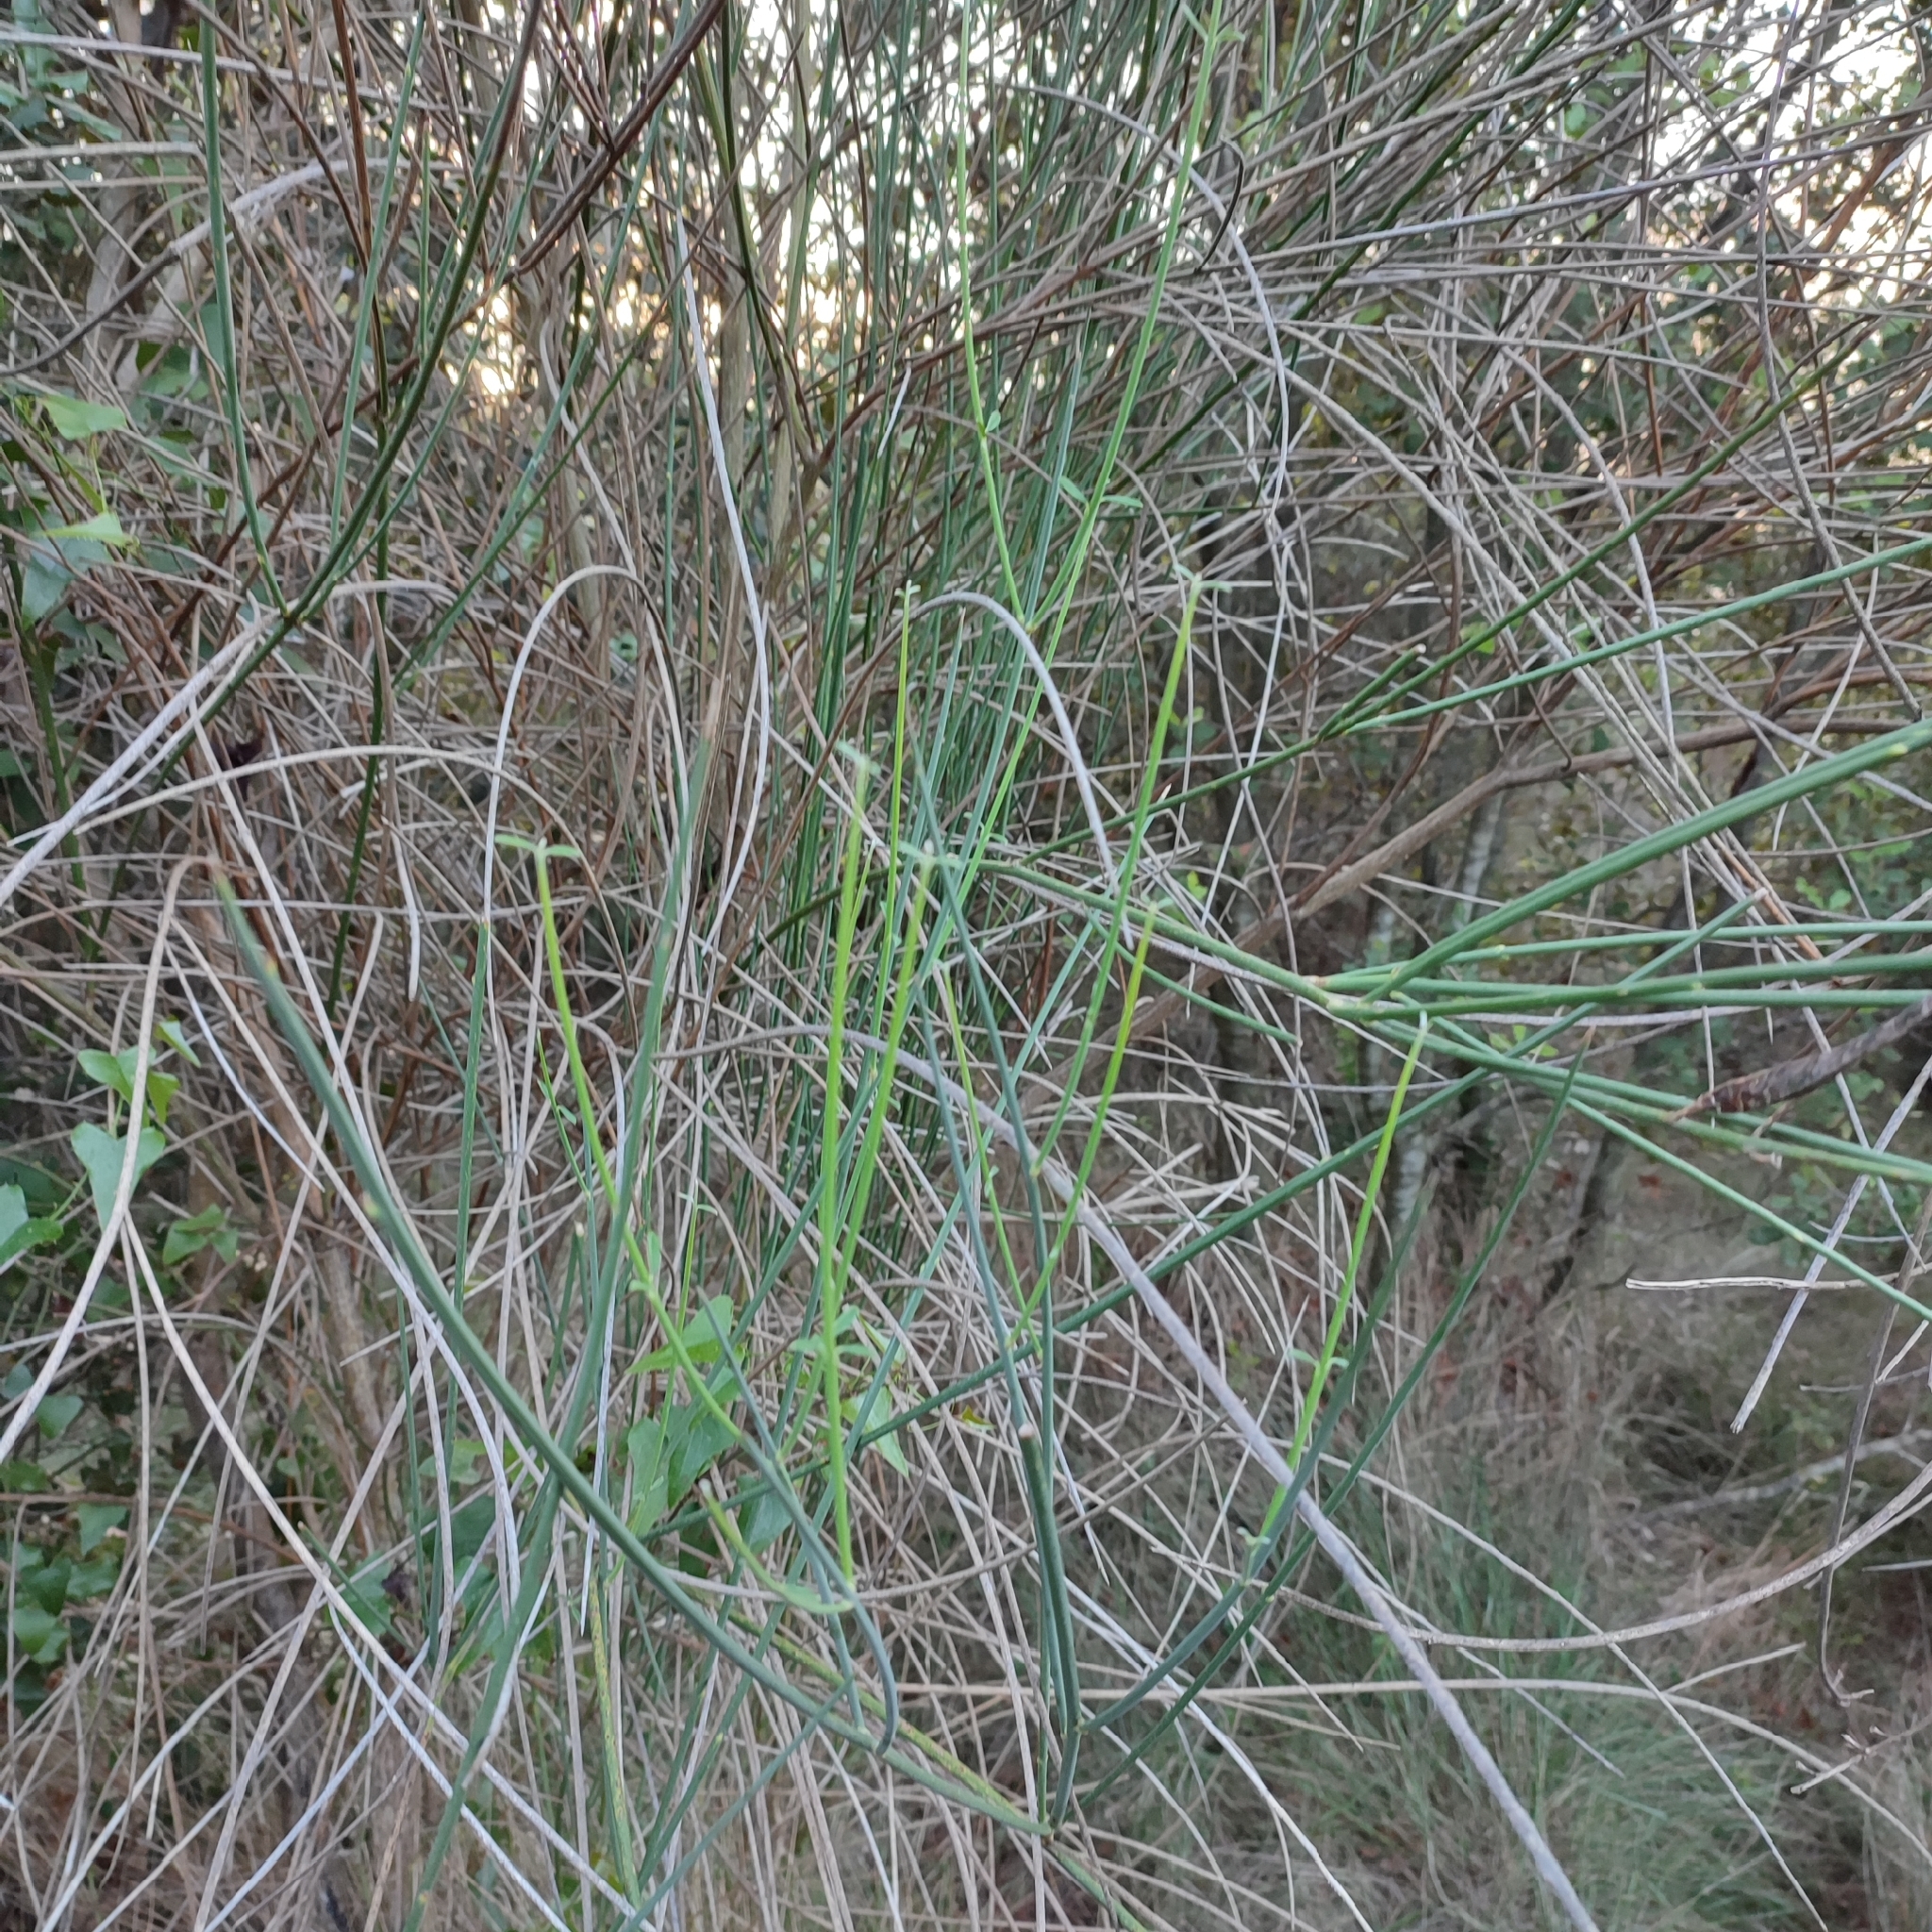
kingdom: Plantae
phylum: Tracheophyta
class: Magnoliopsida
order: Fabales
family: Fabaceae
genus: Spartium
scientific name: Spartium junceum
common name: Spanish broom
